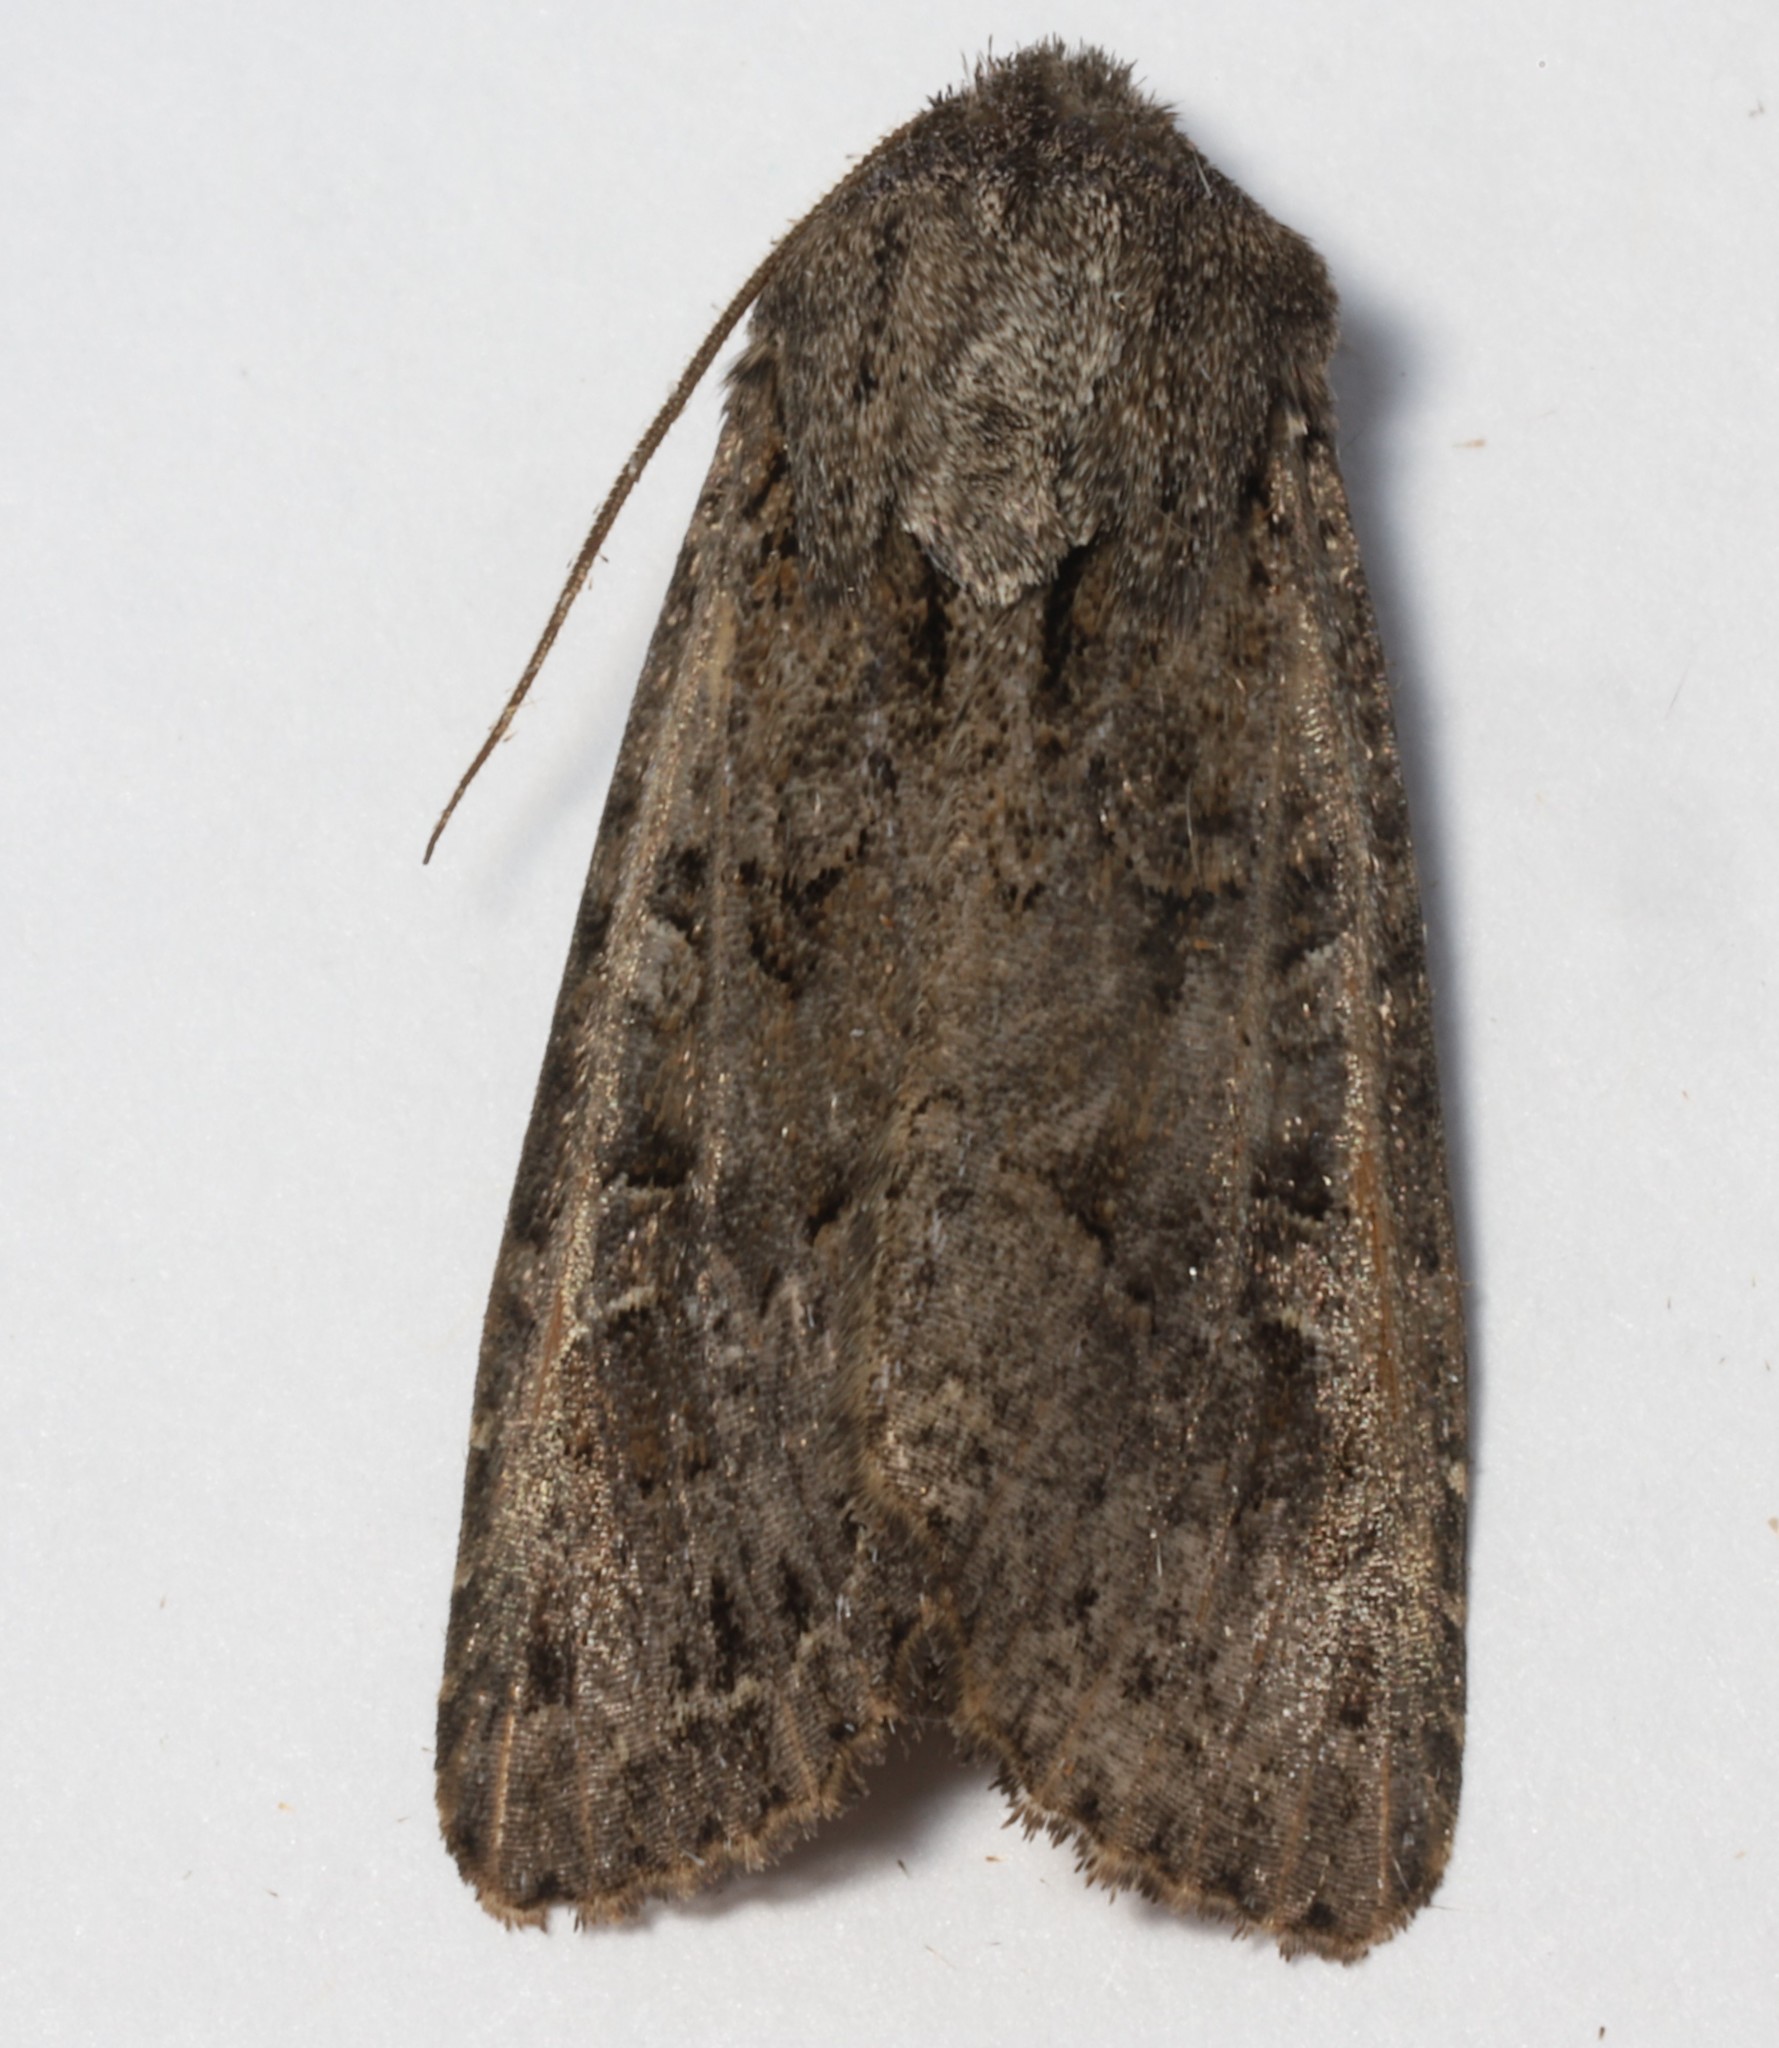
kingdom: Animalia
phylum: Arthropoda
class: Insecta
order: Lepidoptera
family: Noctuidae
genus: Apamea
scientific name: Apamea devastator
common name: Glassy cutworm
